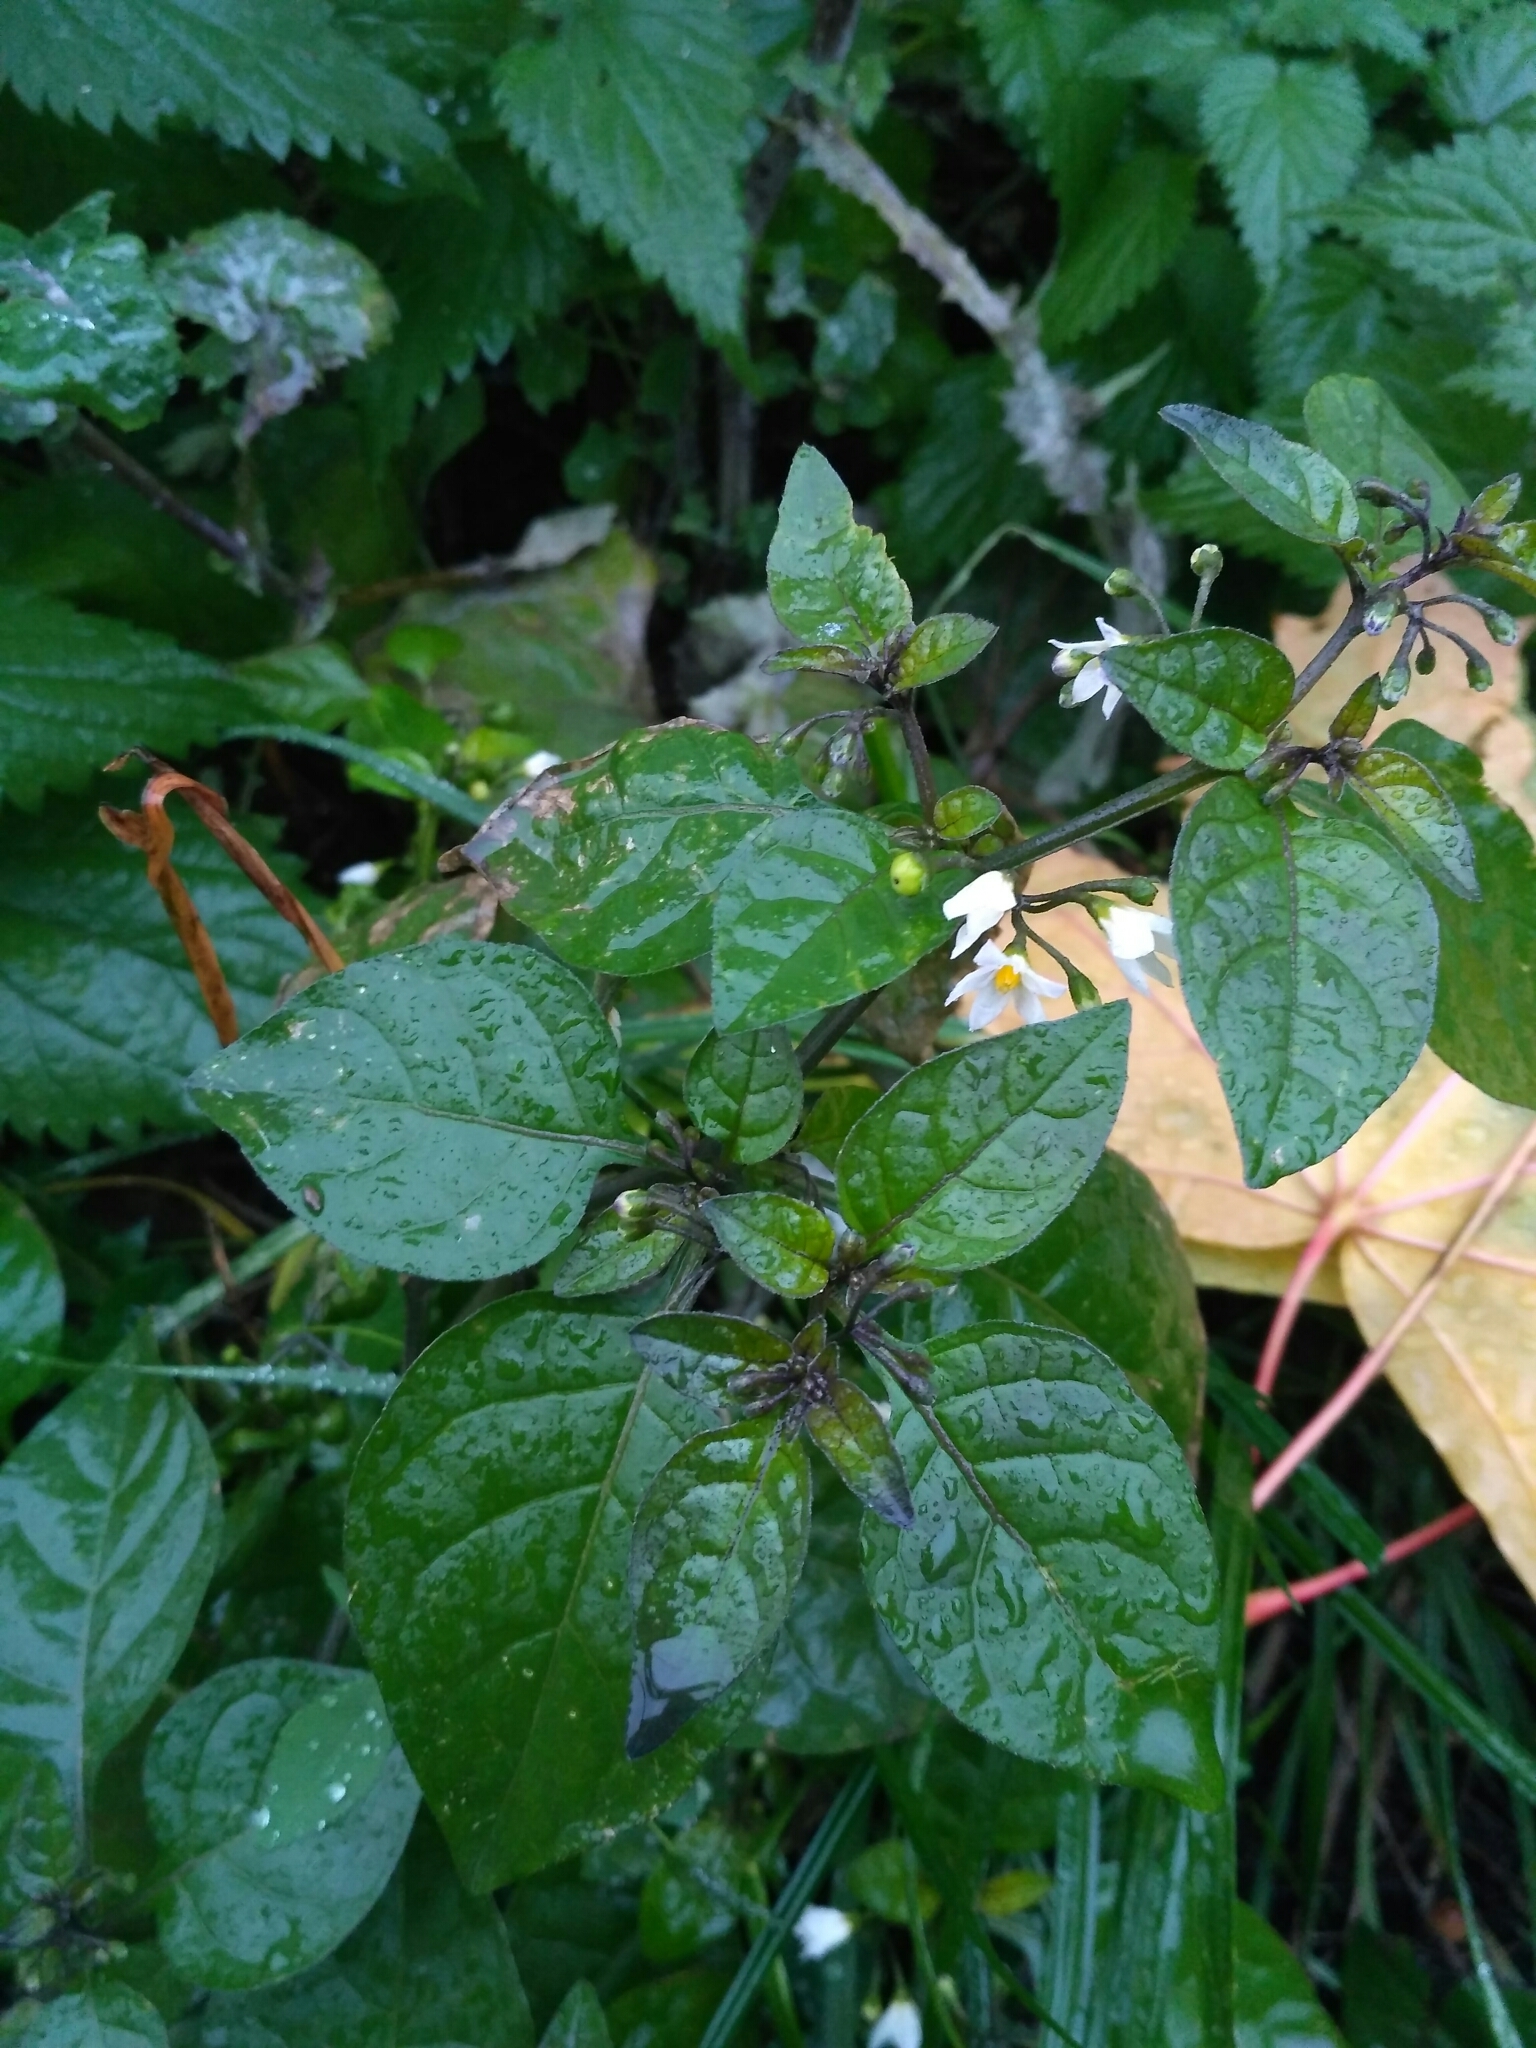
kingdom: Plantae
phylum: Tracheophyta
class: Magnoliopsida
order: Solanales
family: Solanaceae
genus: Solanum
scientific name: Solanum nigrum
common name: Black nightshade
